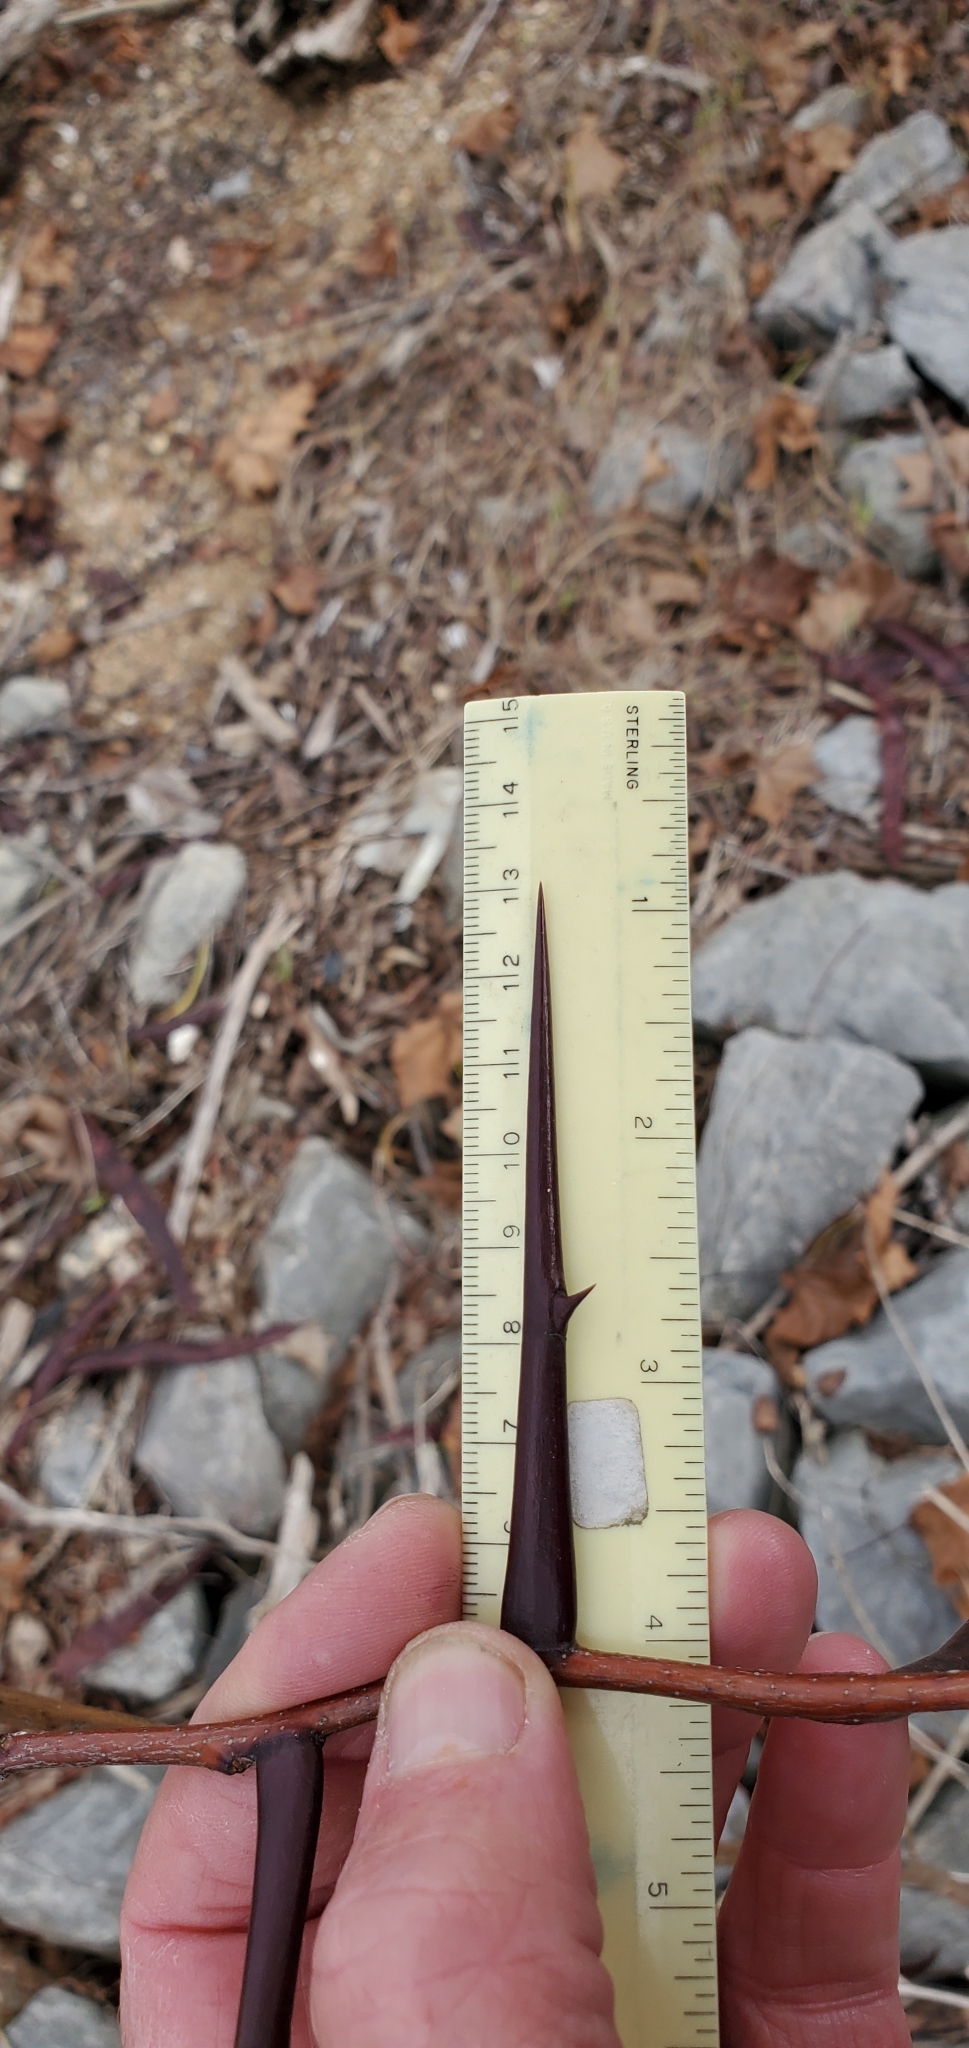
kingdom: Plantae
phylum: Tracheophyta
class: Magnoliopsida
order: Fabales
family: Fabaceae
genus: Gleditsia
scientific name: Gleditsia triacanthos
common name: Common honeylocust
